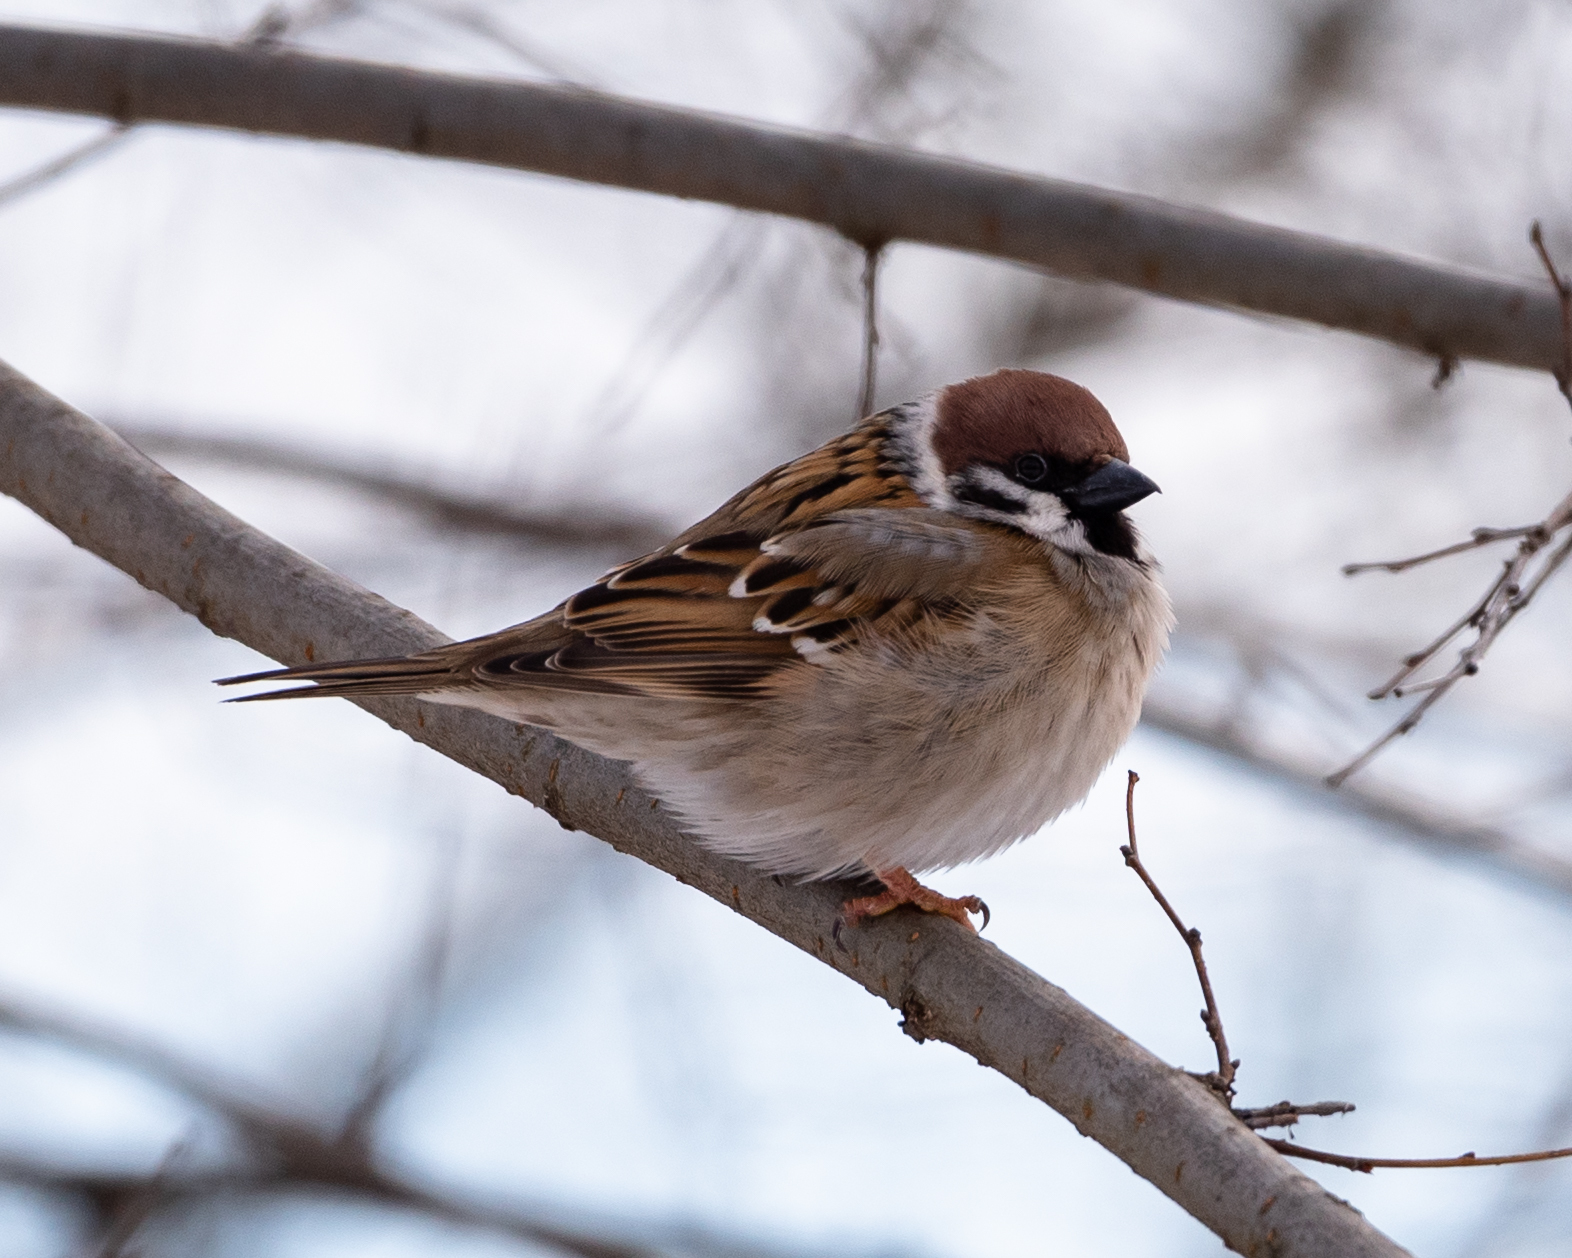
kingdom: Animalia
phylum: Chordata
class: Aves
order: Passeriformes
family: Passeridae
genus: Passer
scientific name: Passer montanus
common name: Eurasian tree sparrow
